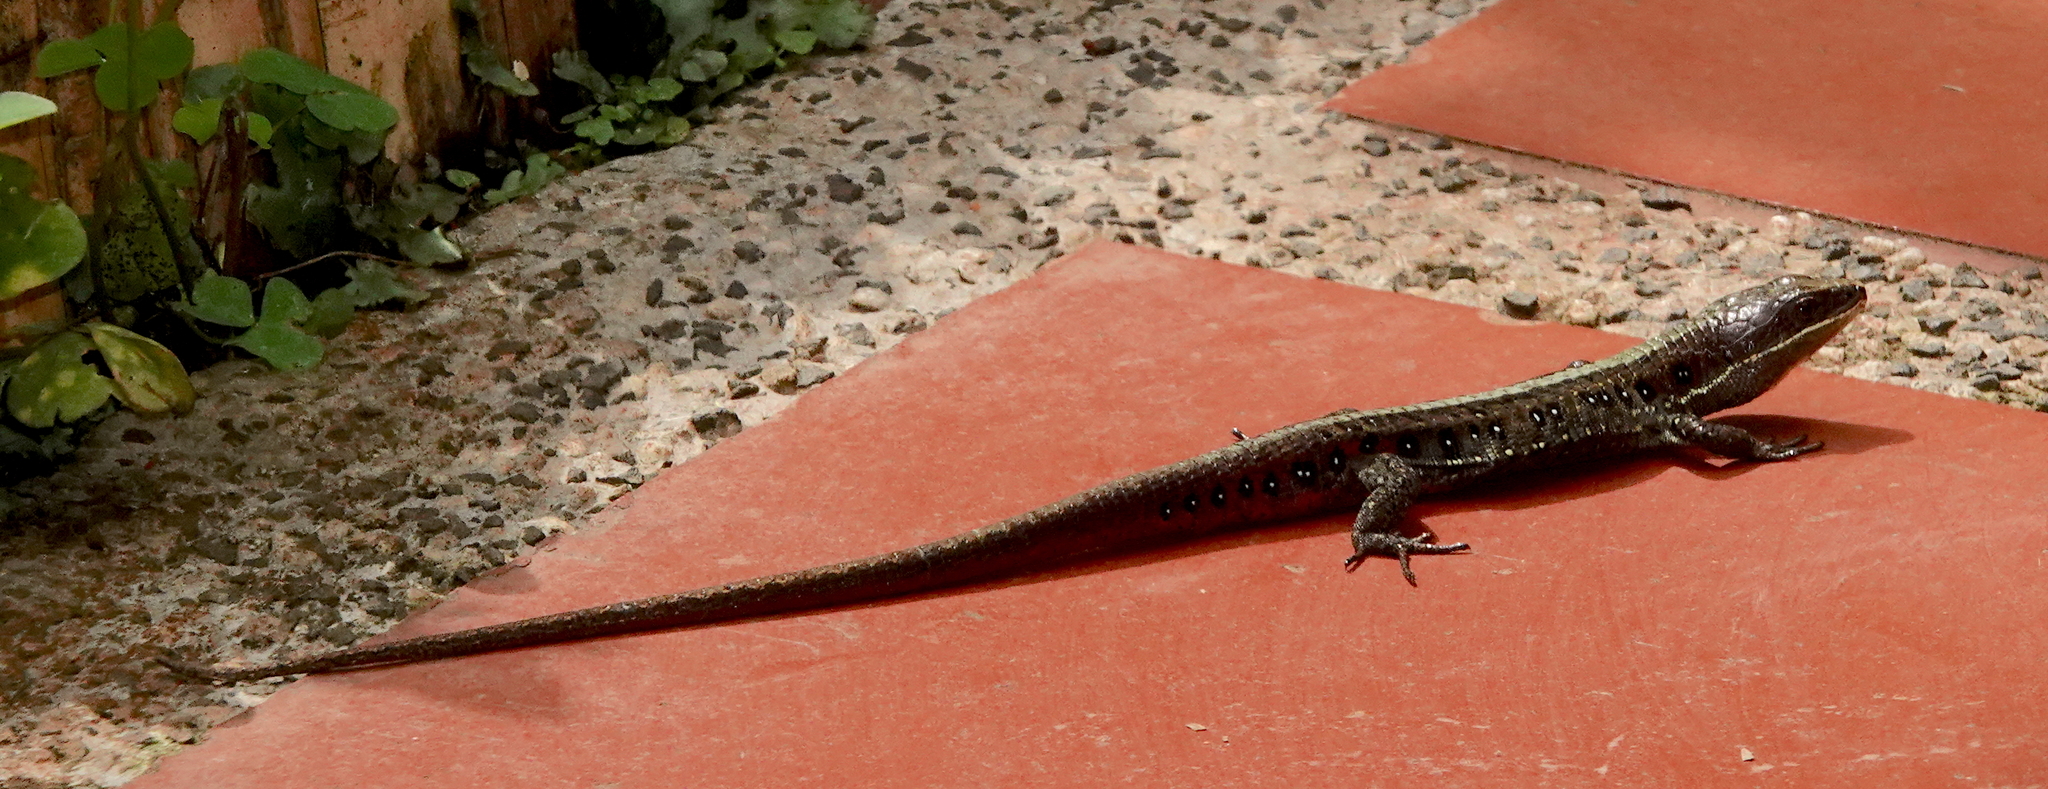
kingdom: Animalia
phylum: Chordata
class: Squamata
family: Gymnophthalmidae
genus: Pholidobolus
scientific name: Pholidobolus vertebralis
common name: Brown prionodactylus
